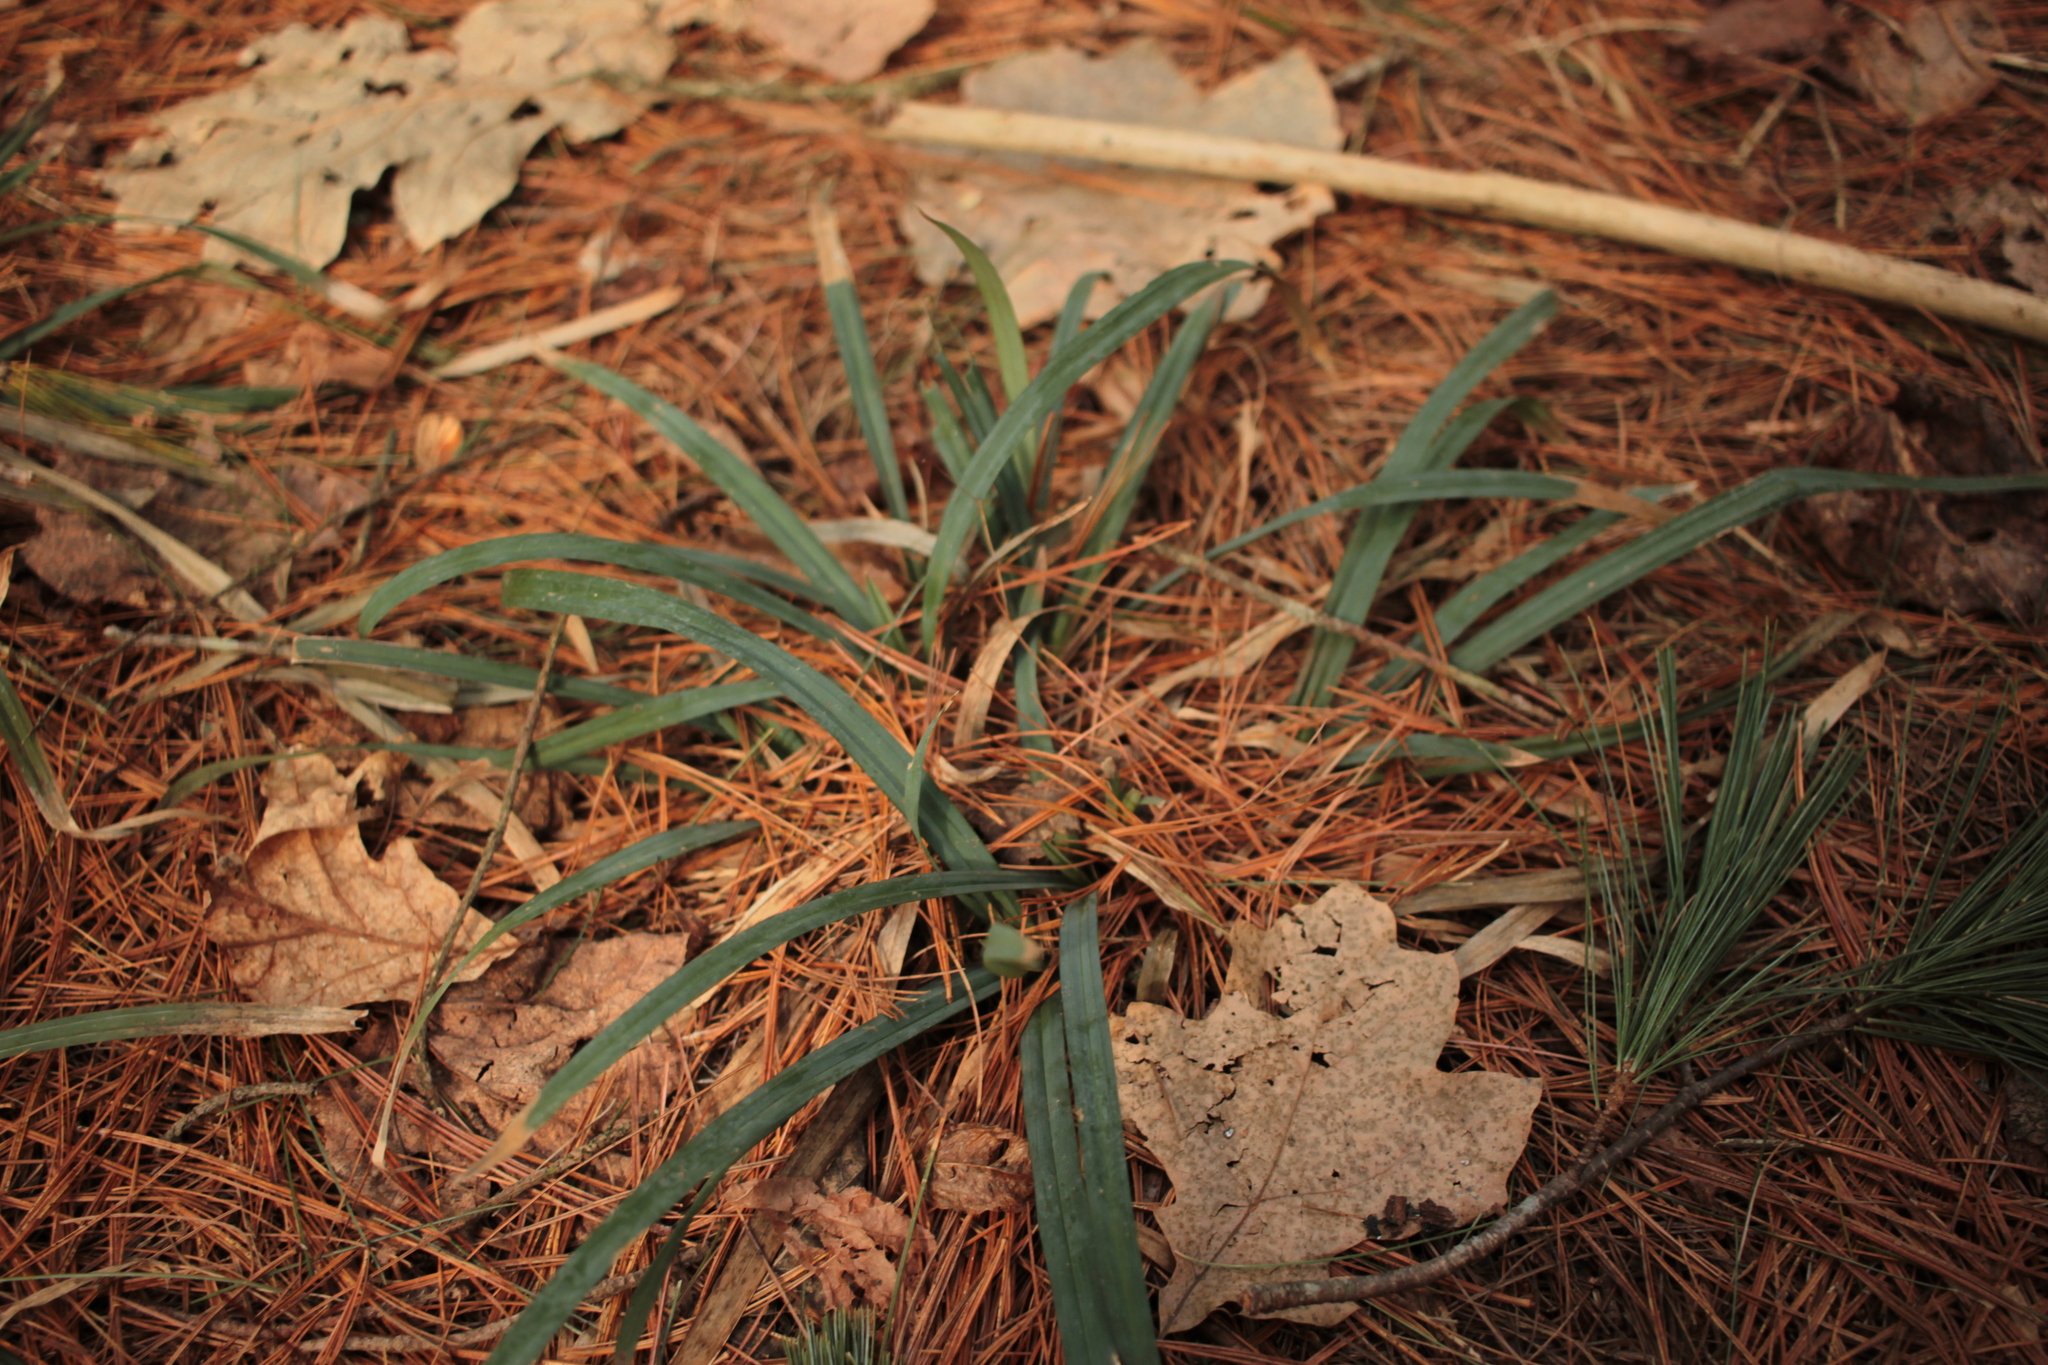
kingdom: Plantae
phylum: Tracheophyta
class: Liliopsida
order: Poales
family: Cyperaceae
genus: Carex
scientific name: Carex
